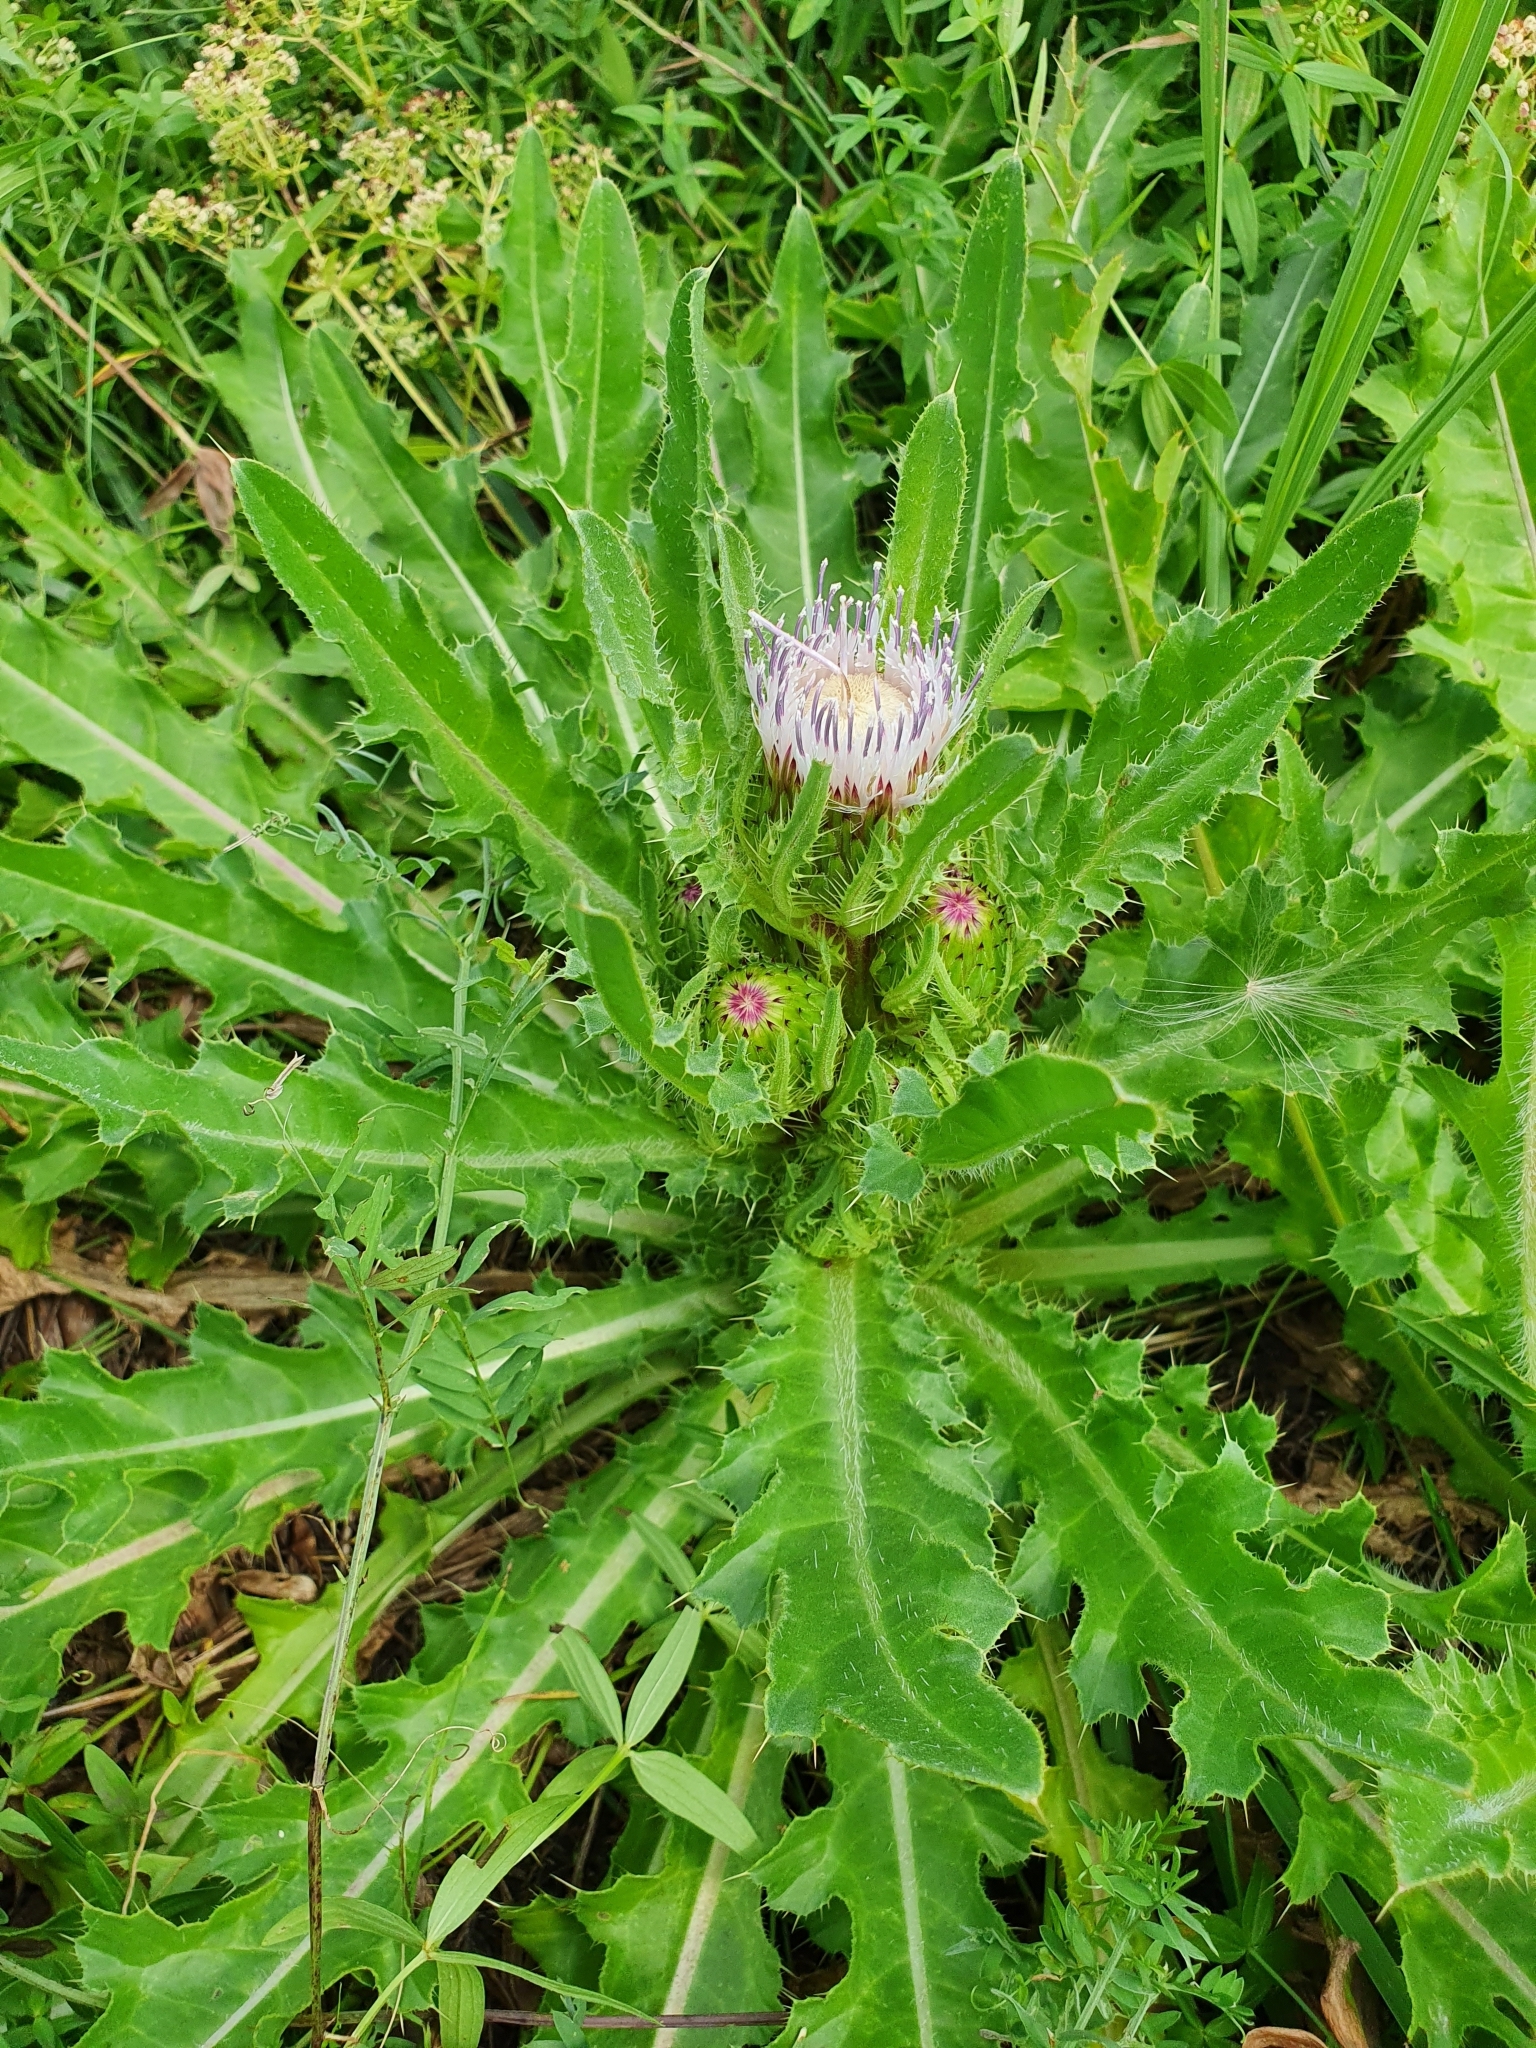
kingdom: Plantae
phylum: Tracheophyta
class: Magnoliopsida
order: Asterales
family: Asteraceae
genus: Cirsium
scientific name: Cirsium esculentum
